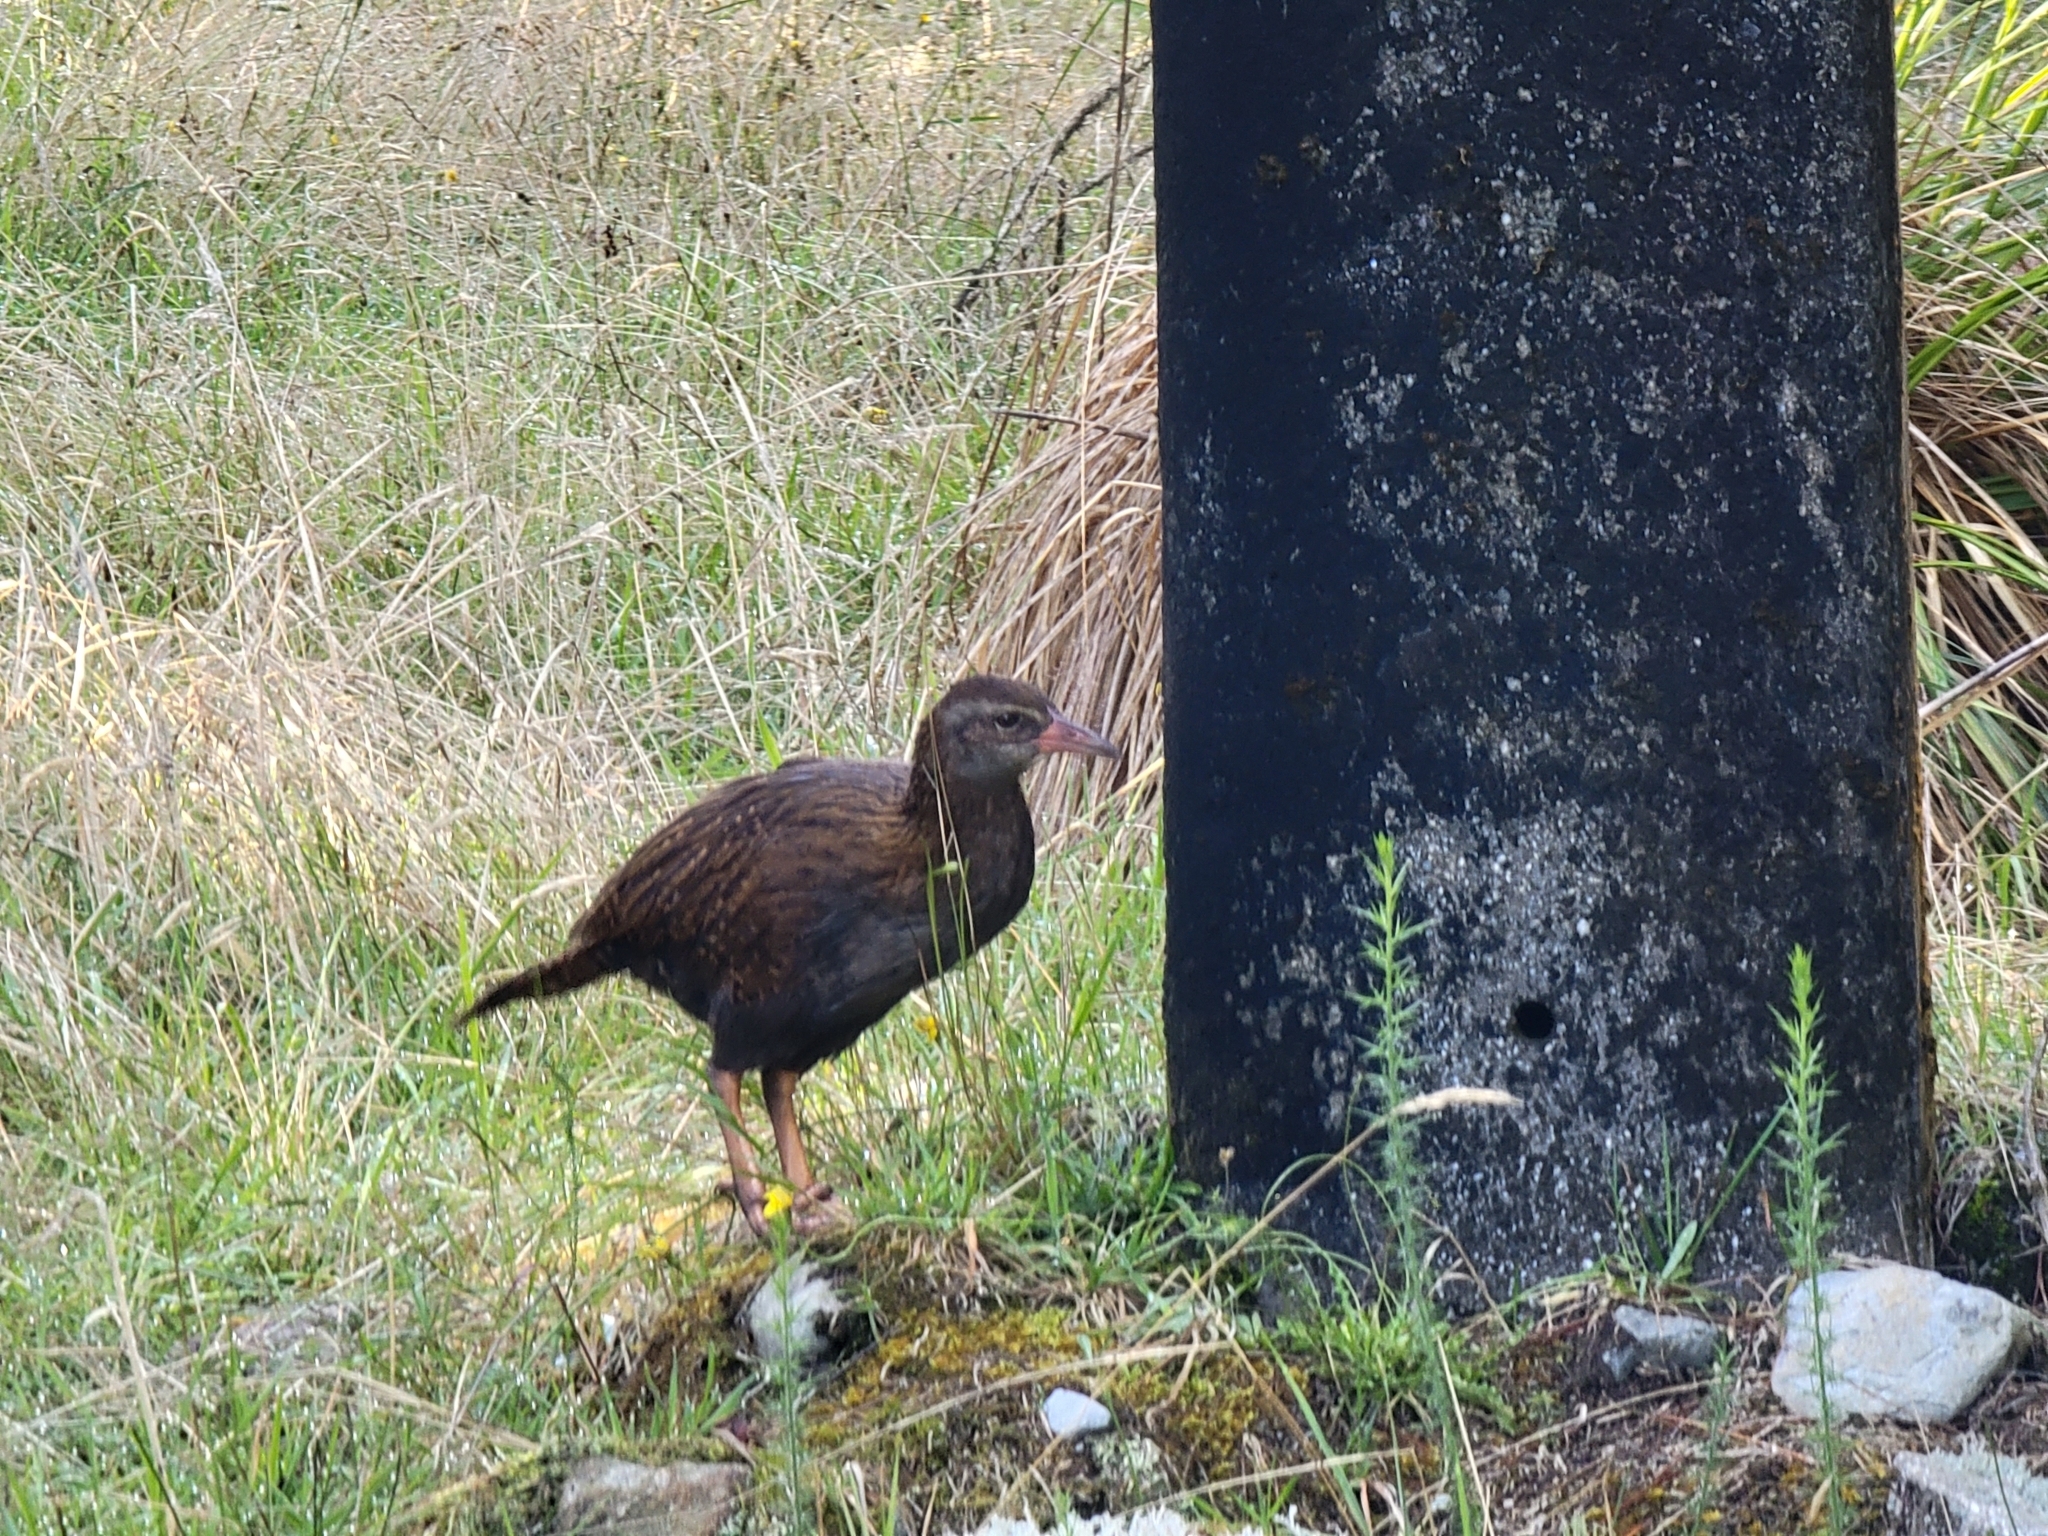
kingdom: Animalia
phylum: Chordata
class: Aves
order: Gruiformes
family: Rallidae
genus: Gallirallus
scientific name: Gallirallus australis
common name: Weka
